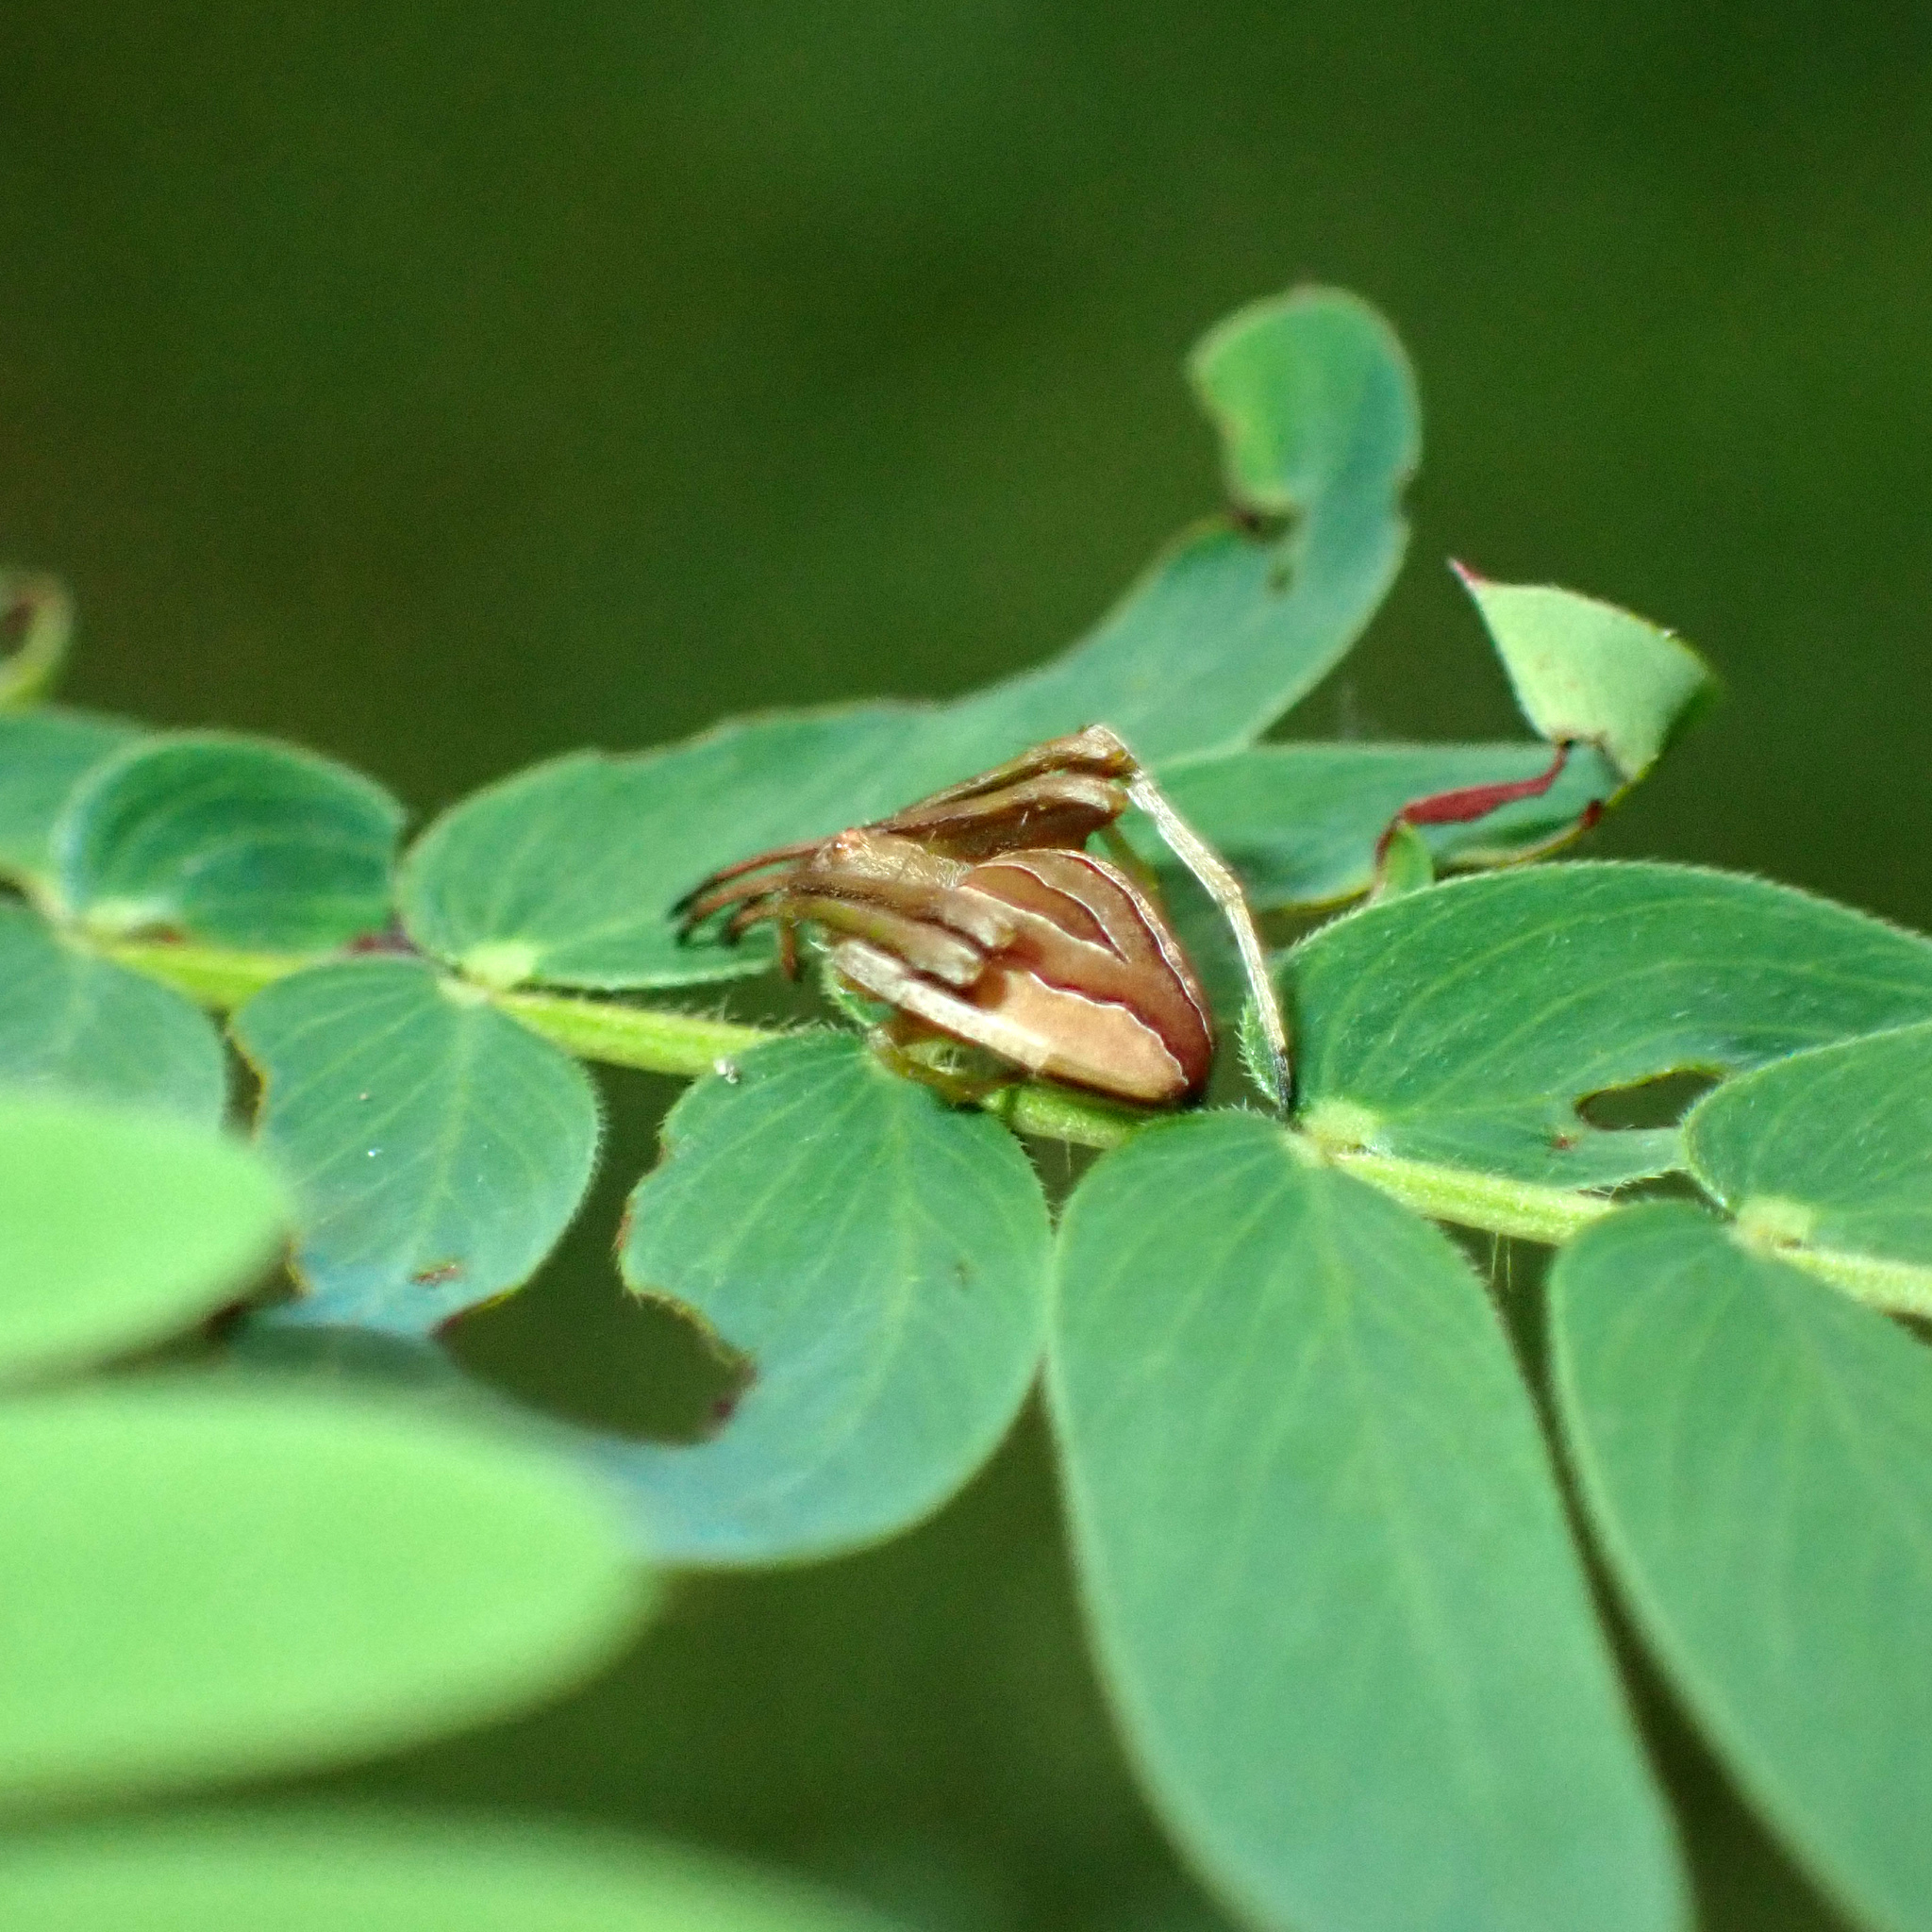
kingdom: Animalia
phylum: Arthropoda
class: Arachnida
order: Araneae
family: Araneidae
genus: Acacesia
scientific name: Acacesia hamata
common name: Orb weavers
